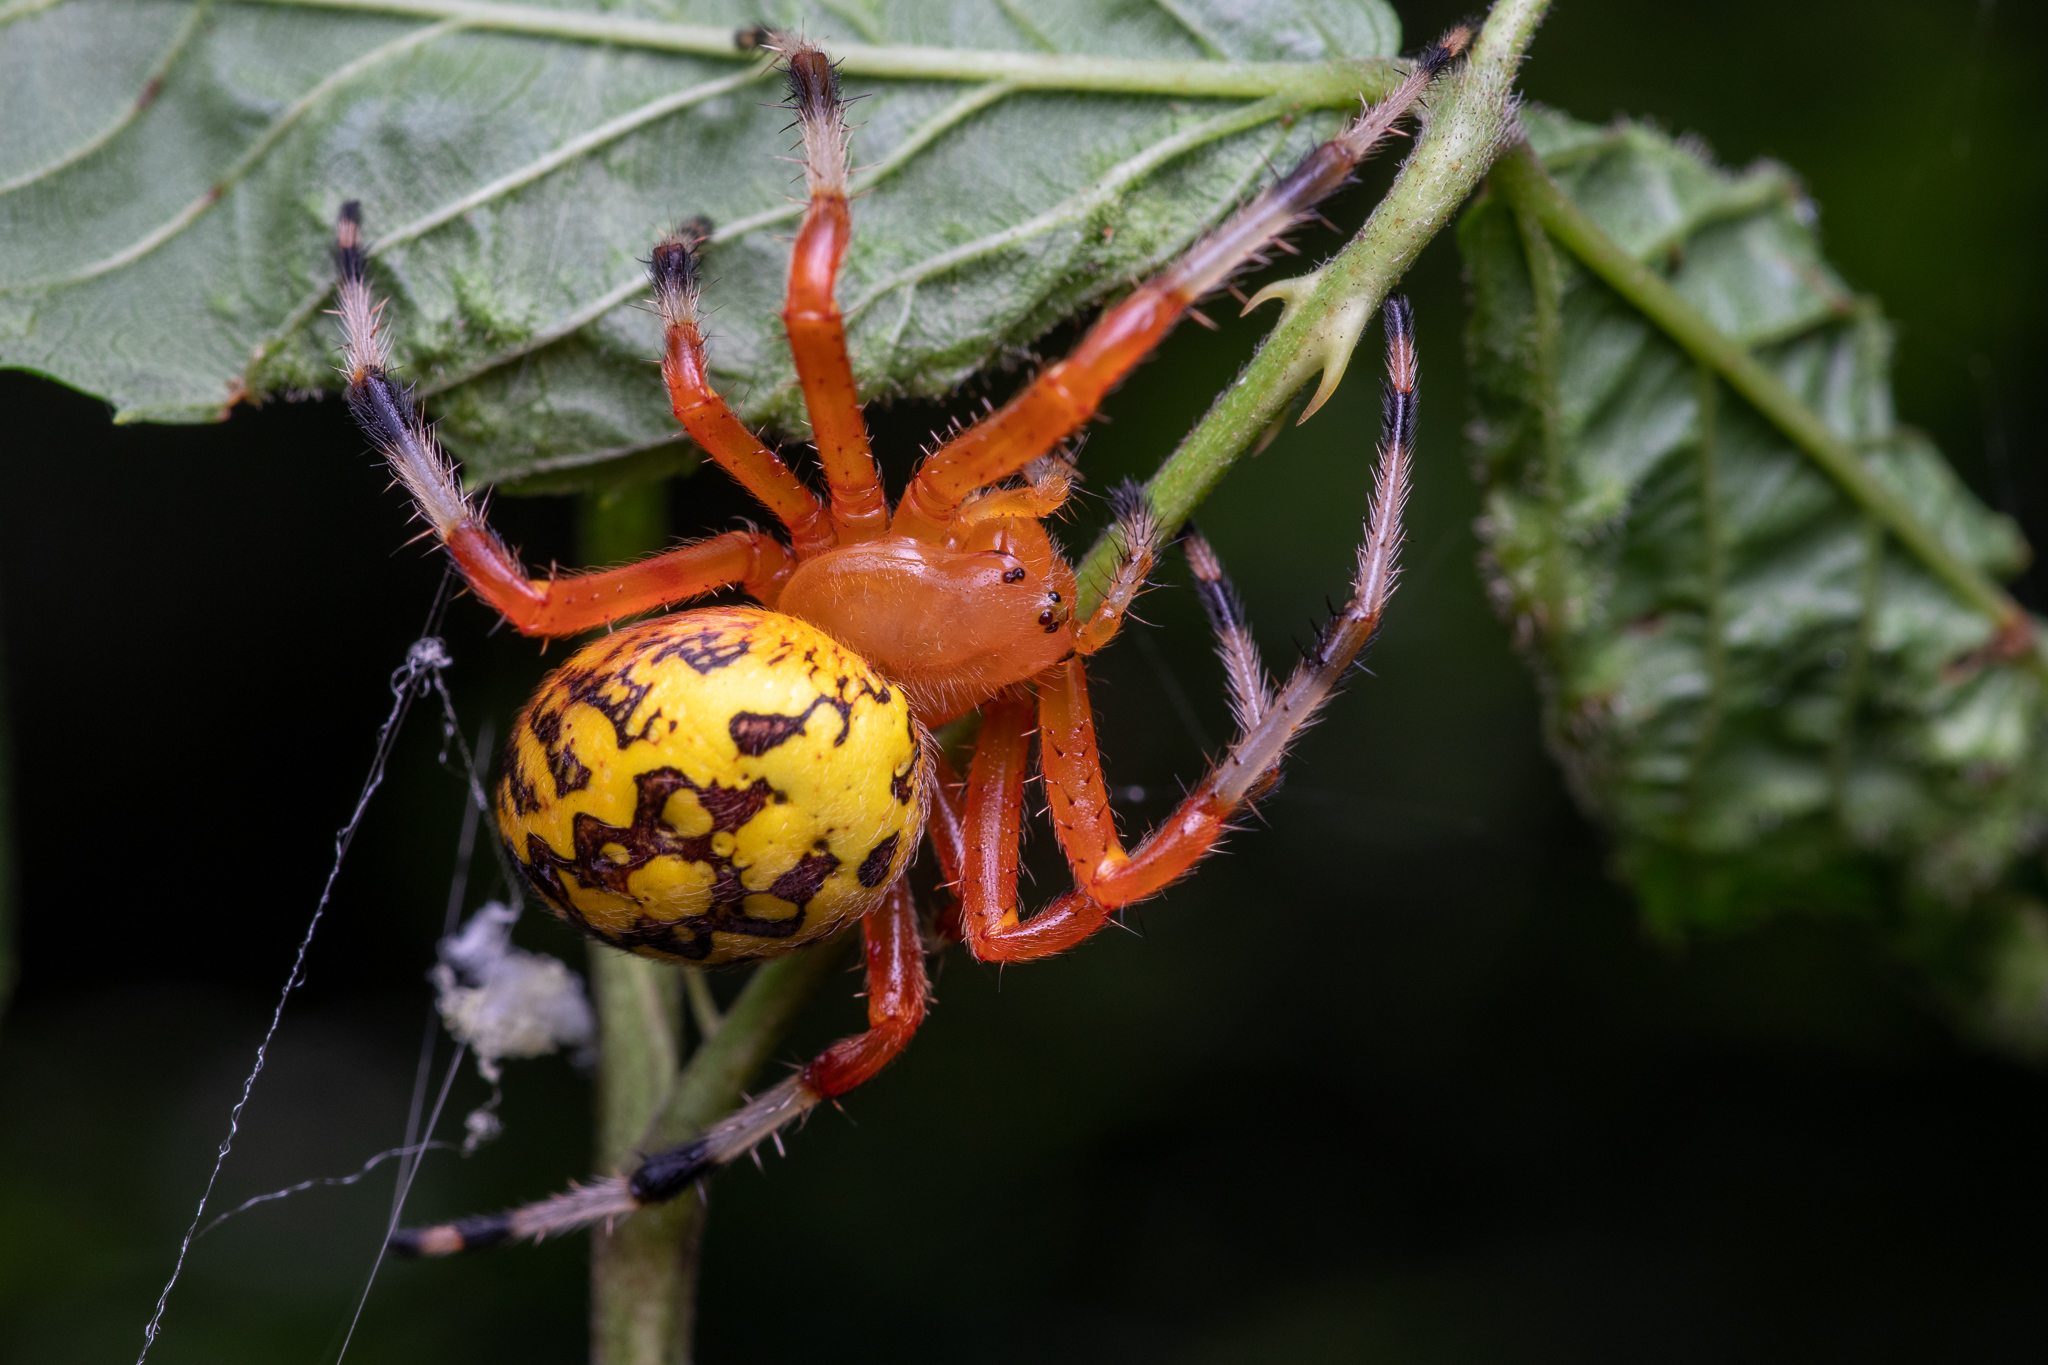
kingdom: Animalia
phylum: Arthropoda
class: Arachnida
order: Araneae
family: Araneidae
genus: Araneus
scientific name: Araneus marmoreus
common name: Marbled orbweaver
